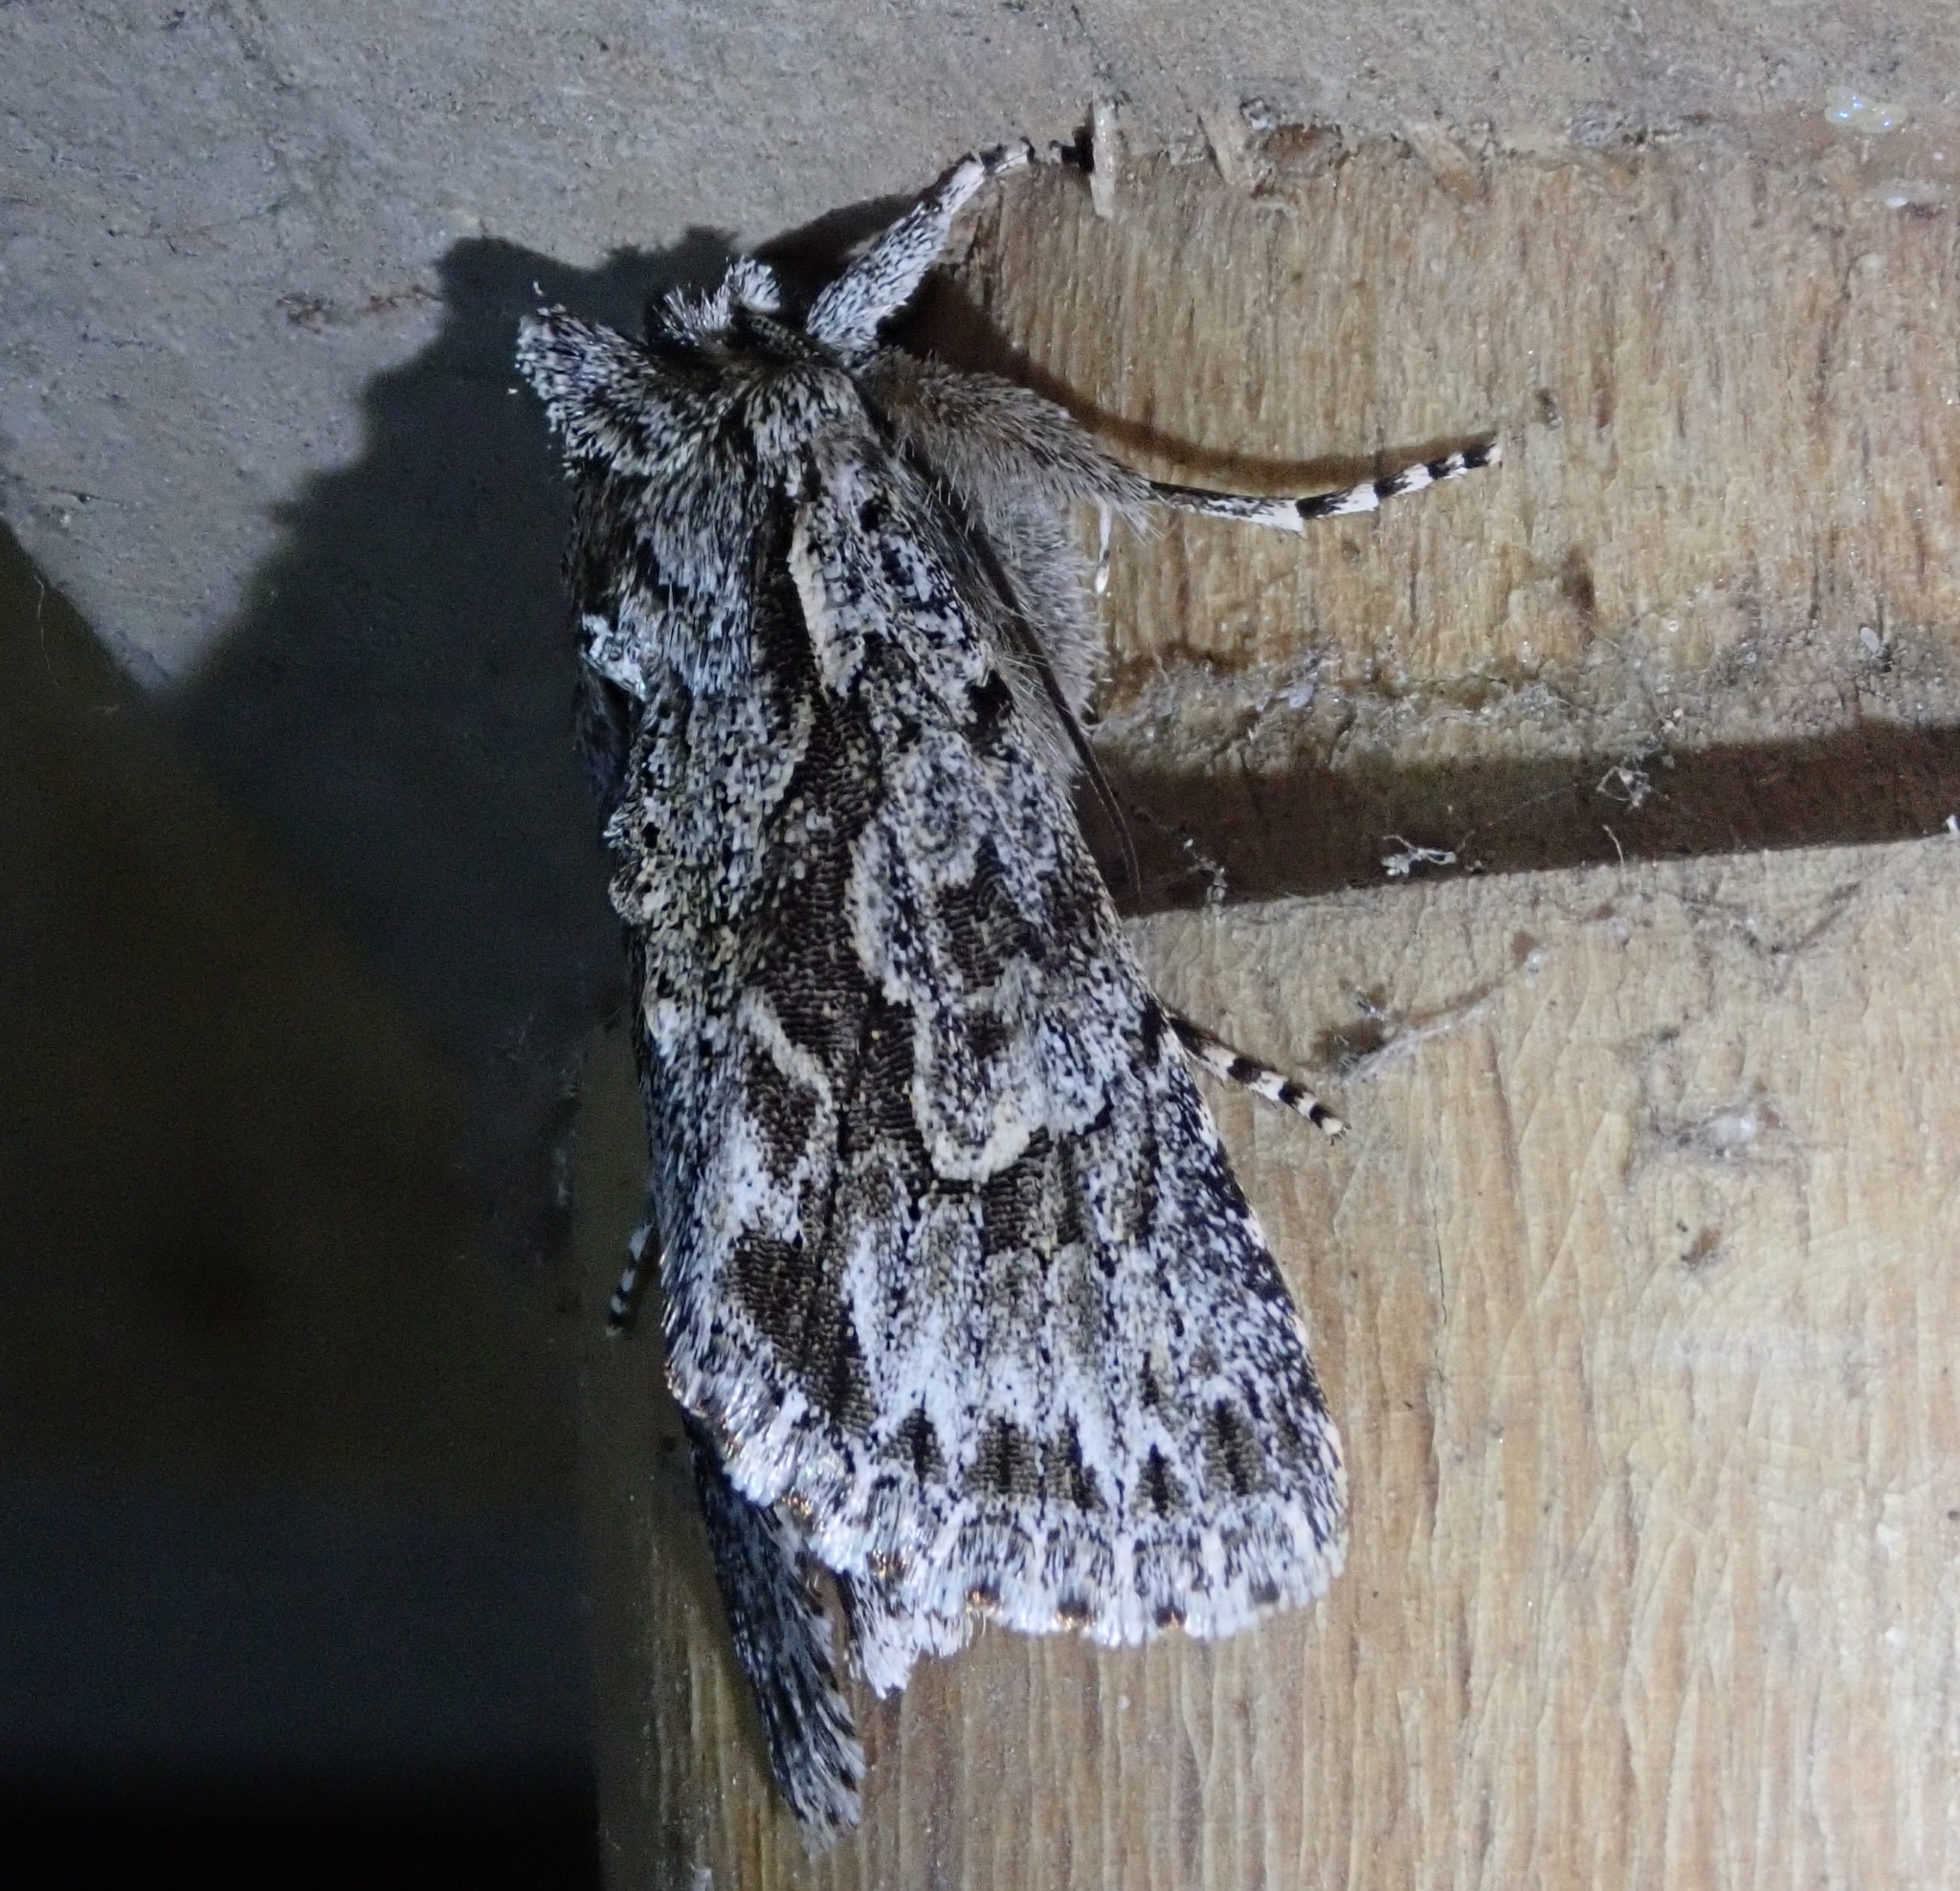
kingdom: Animalia
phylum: Arthropoda
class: Insecta
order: Lepidoptera
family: Noctuidae
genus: Xylocampa
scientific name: Xylocampa areola
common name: Early grey
